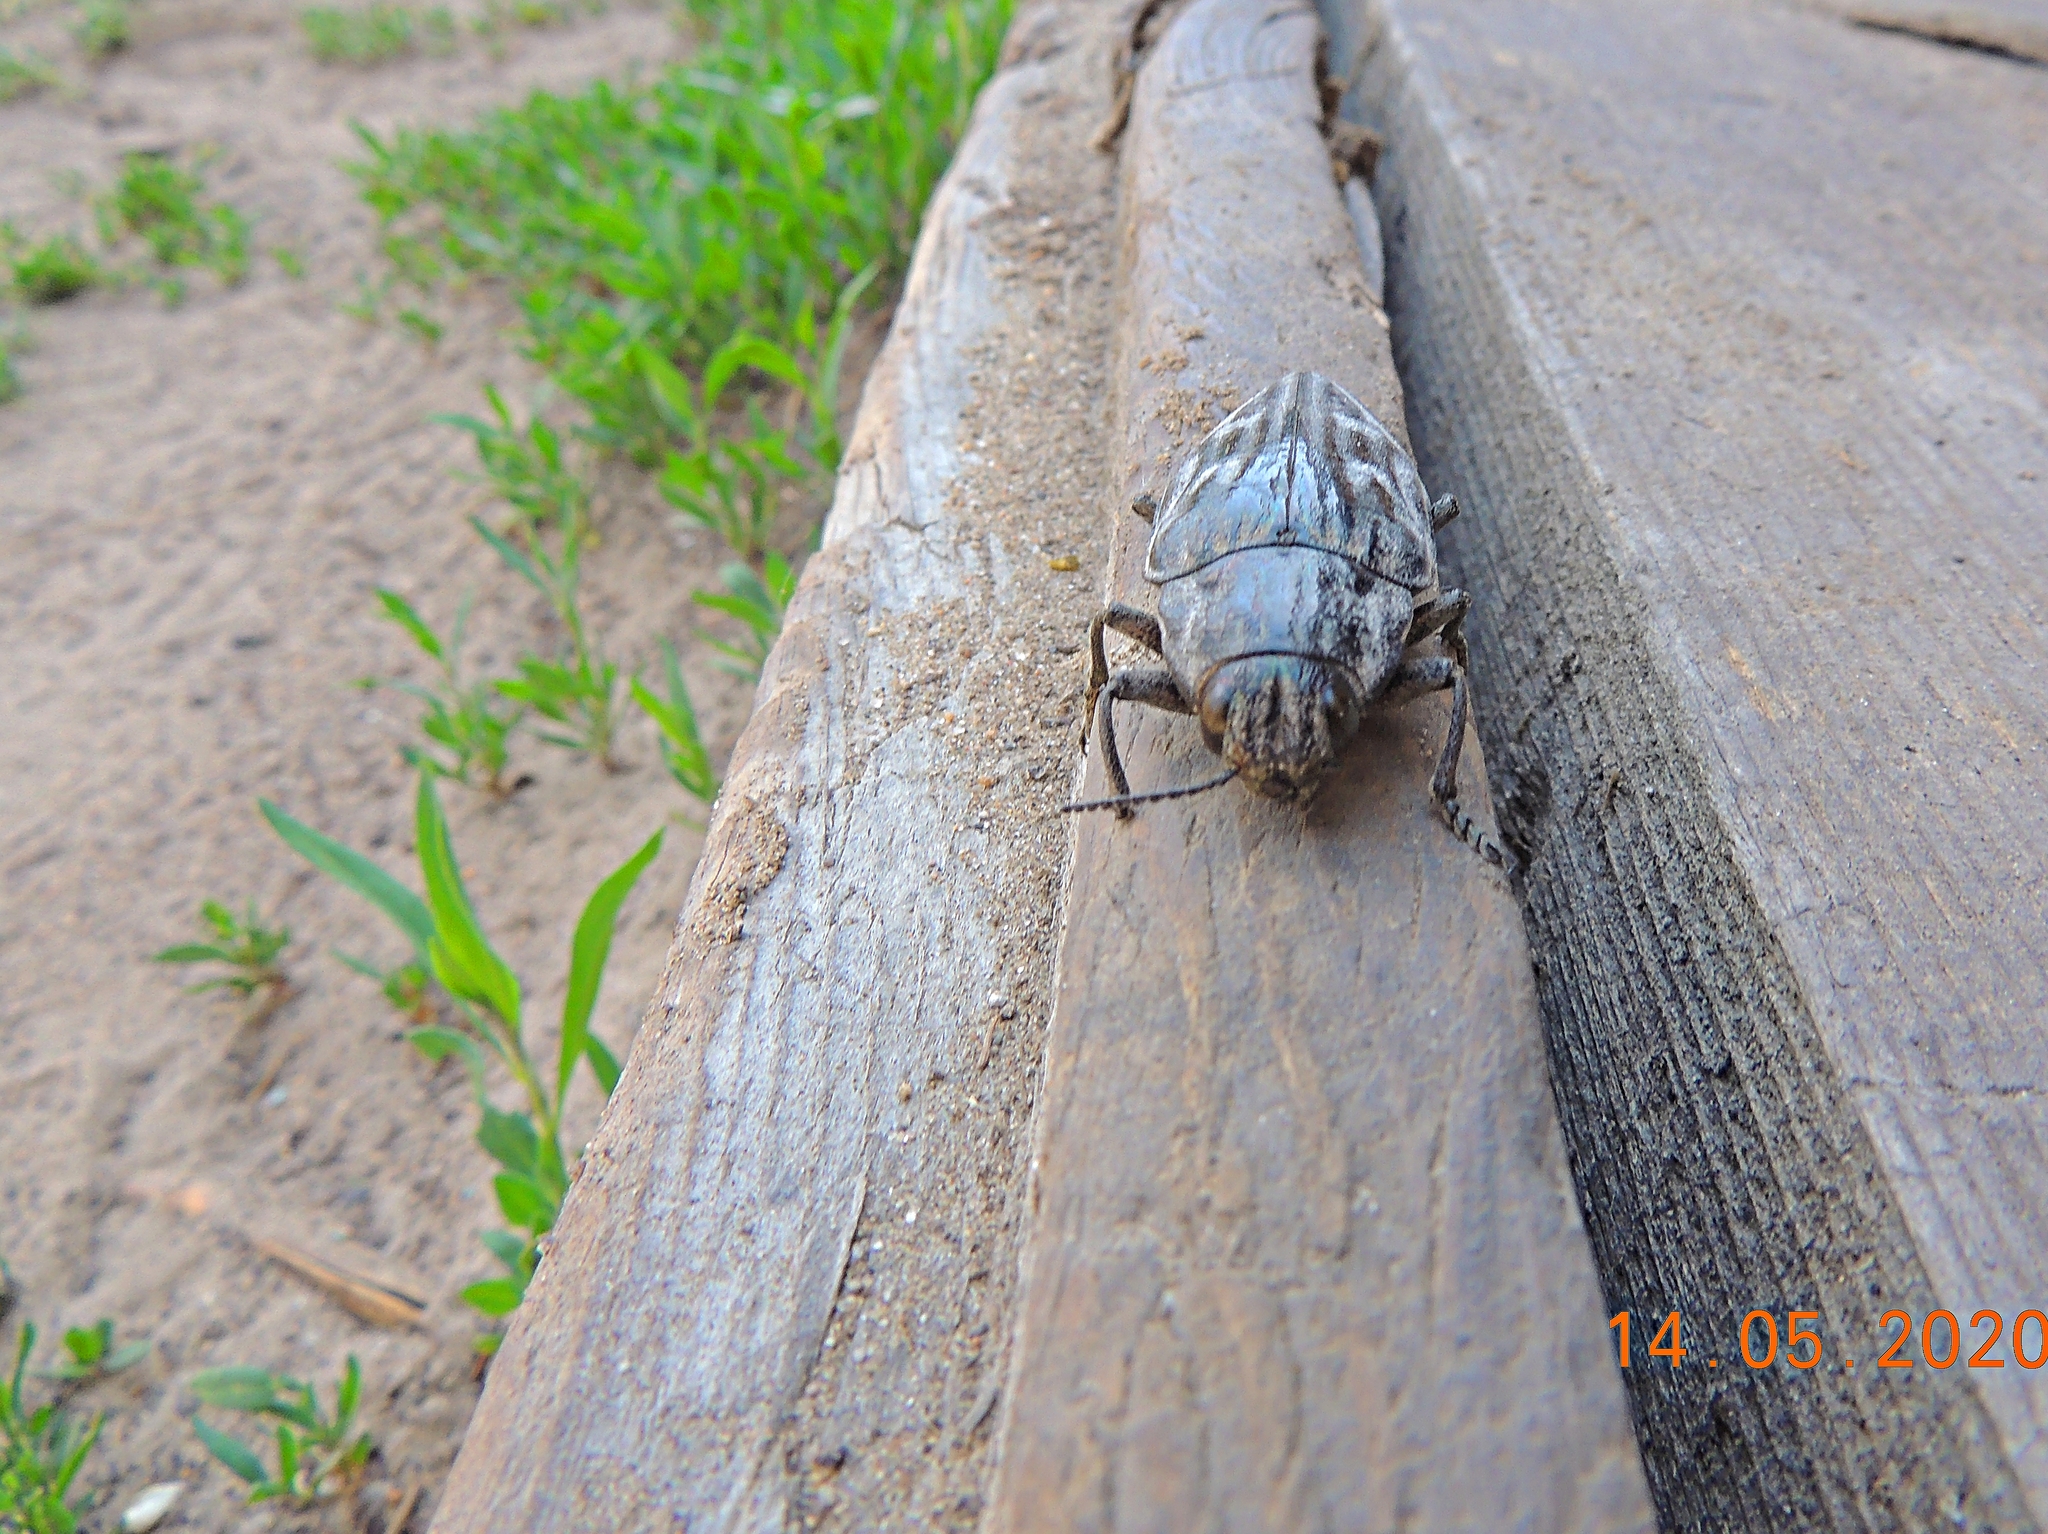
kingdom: Animalia
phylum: Arthropoda
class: Insecta
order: Coleoptera
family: Buprestidae
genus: Chalcophora
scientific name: Chalcophora mariana
